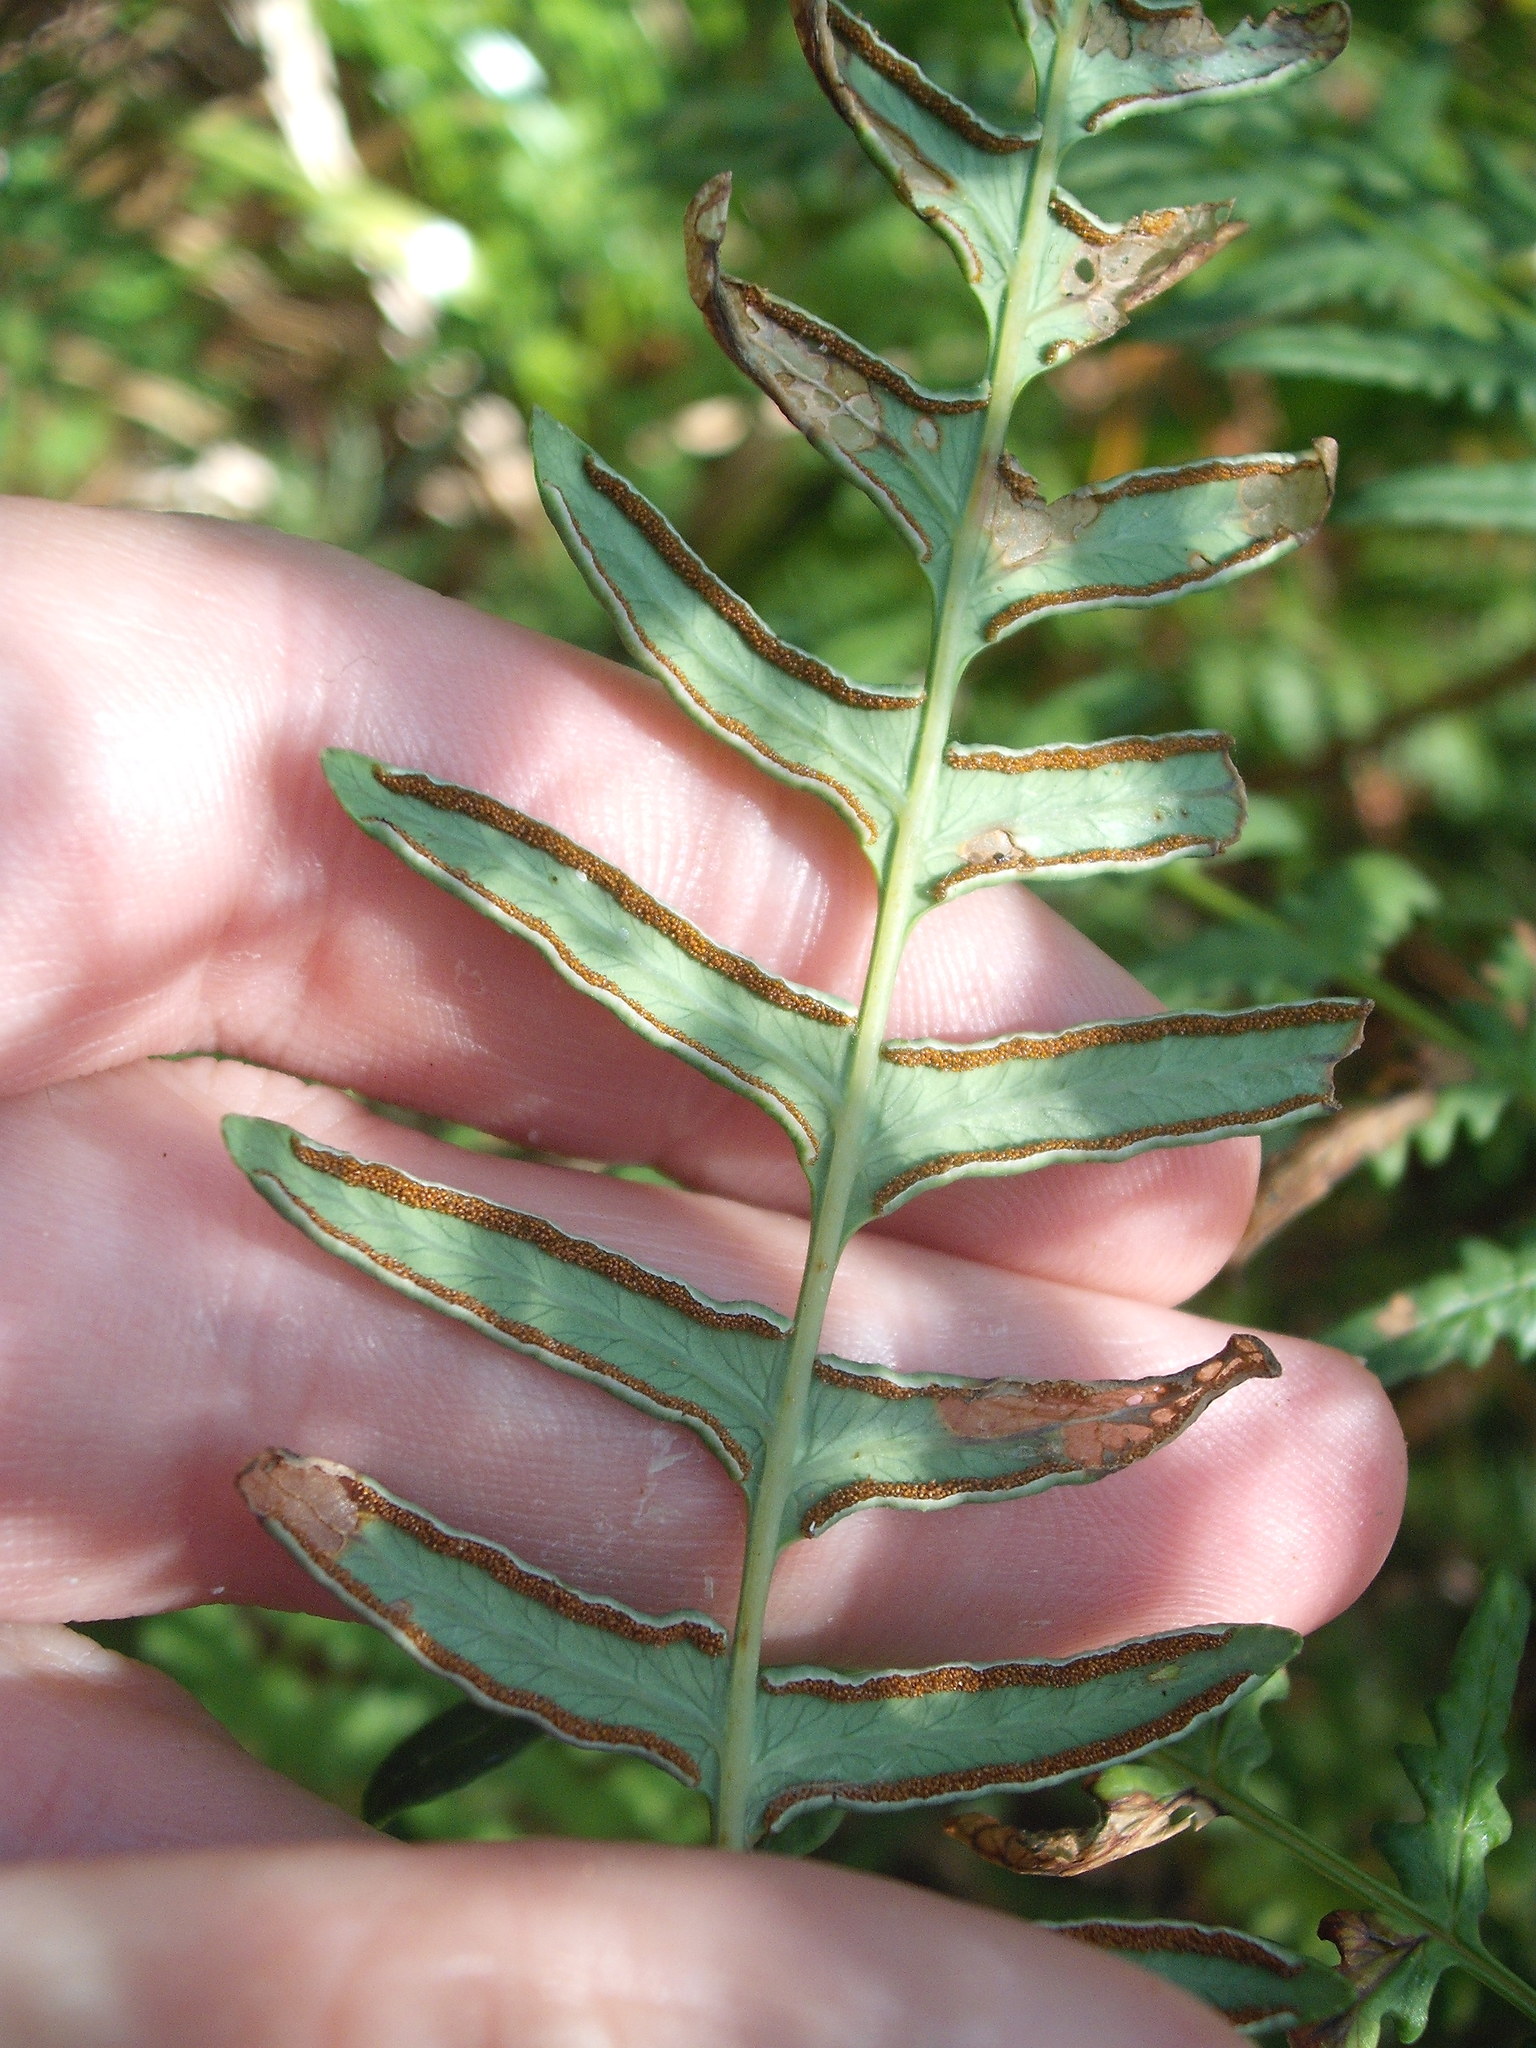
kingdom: Plantae
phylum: Tracheophyta
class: Polypodiopsida
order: Polypodiales
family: Dennstaedtiaceae
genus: Histiopteris
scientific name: Histiopteris incisa
